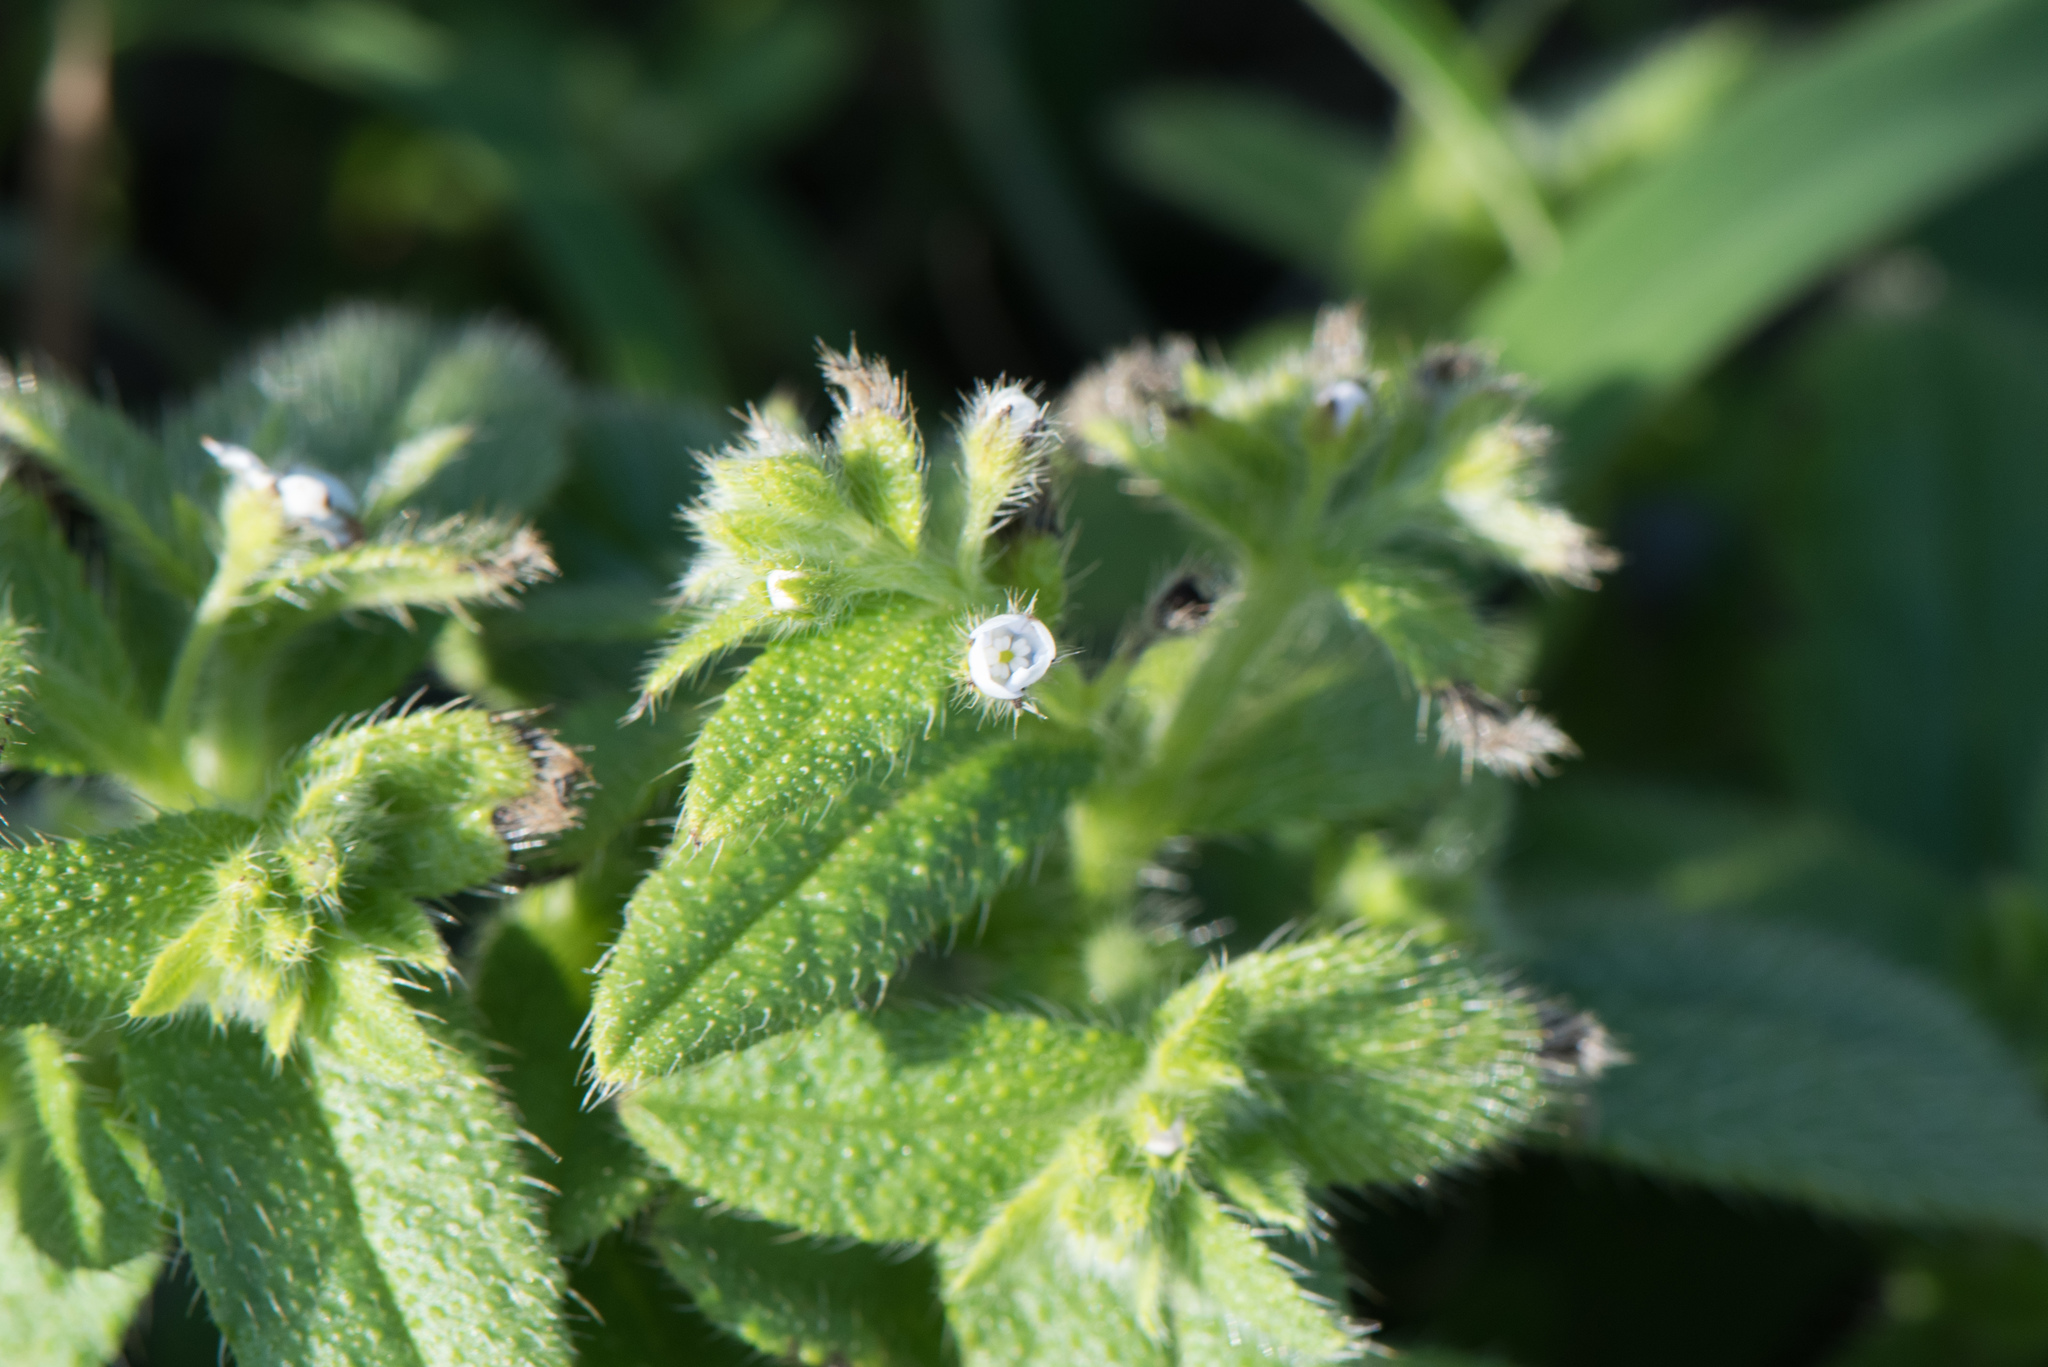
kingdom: Plantae
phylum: Tracheophyta
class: Magnoliopsida
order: Boraginales
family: Boraginaceae
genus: Thyrocarpus
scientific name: Thyrocarpus sampsonii
